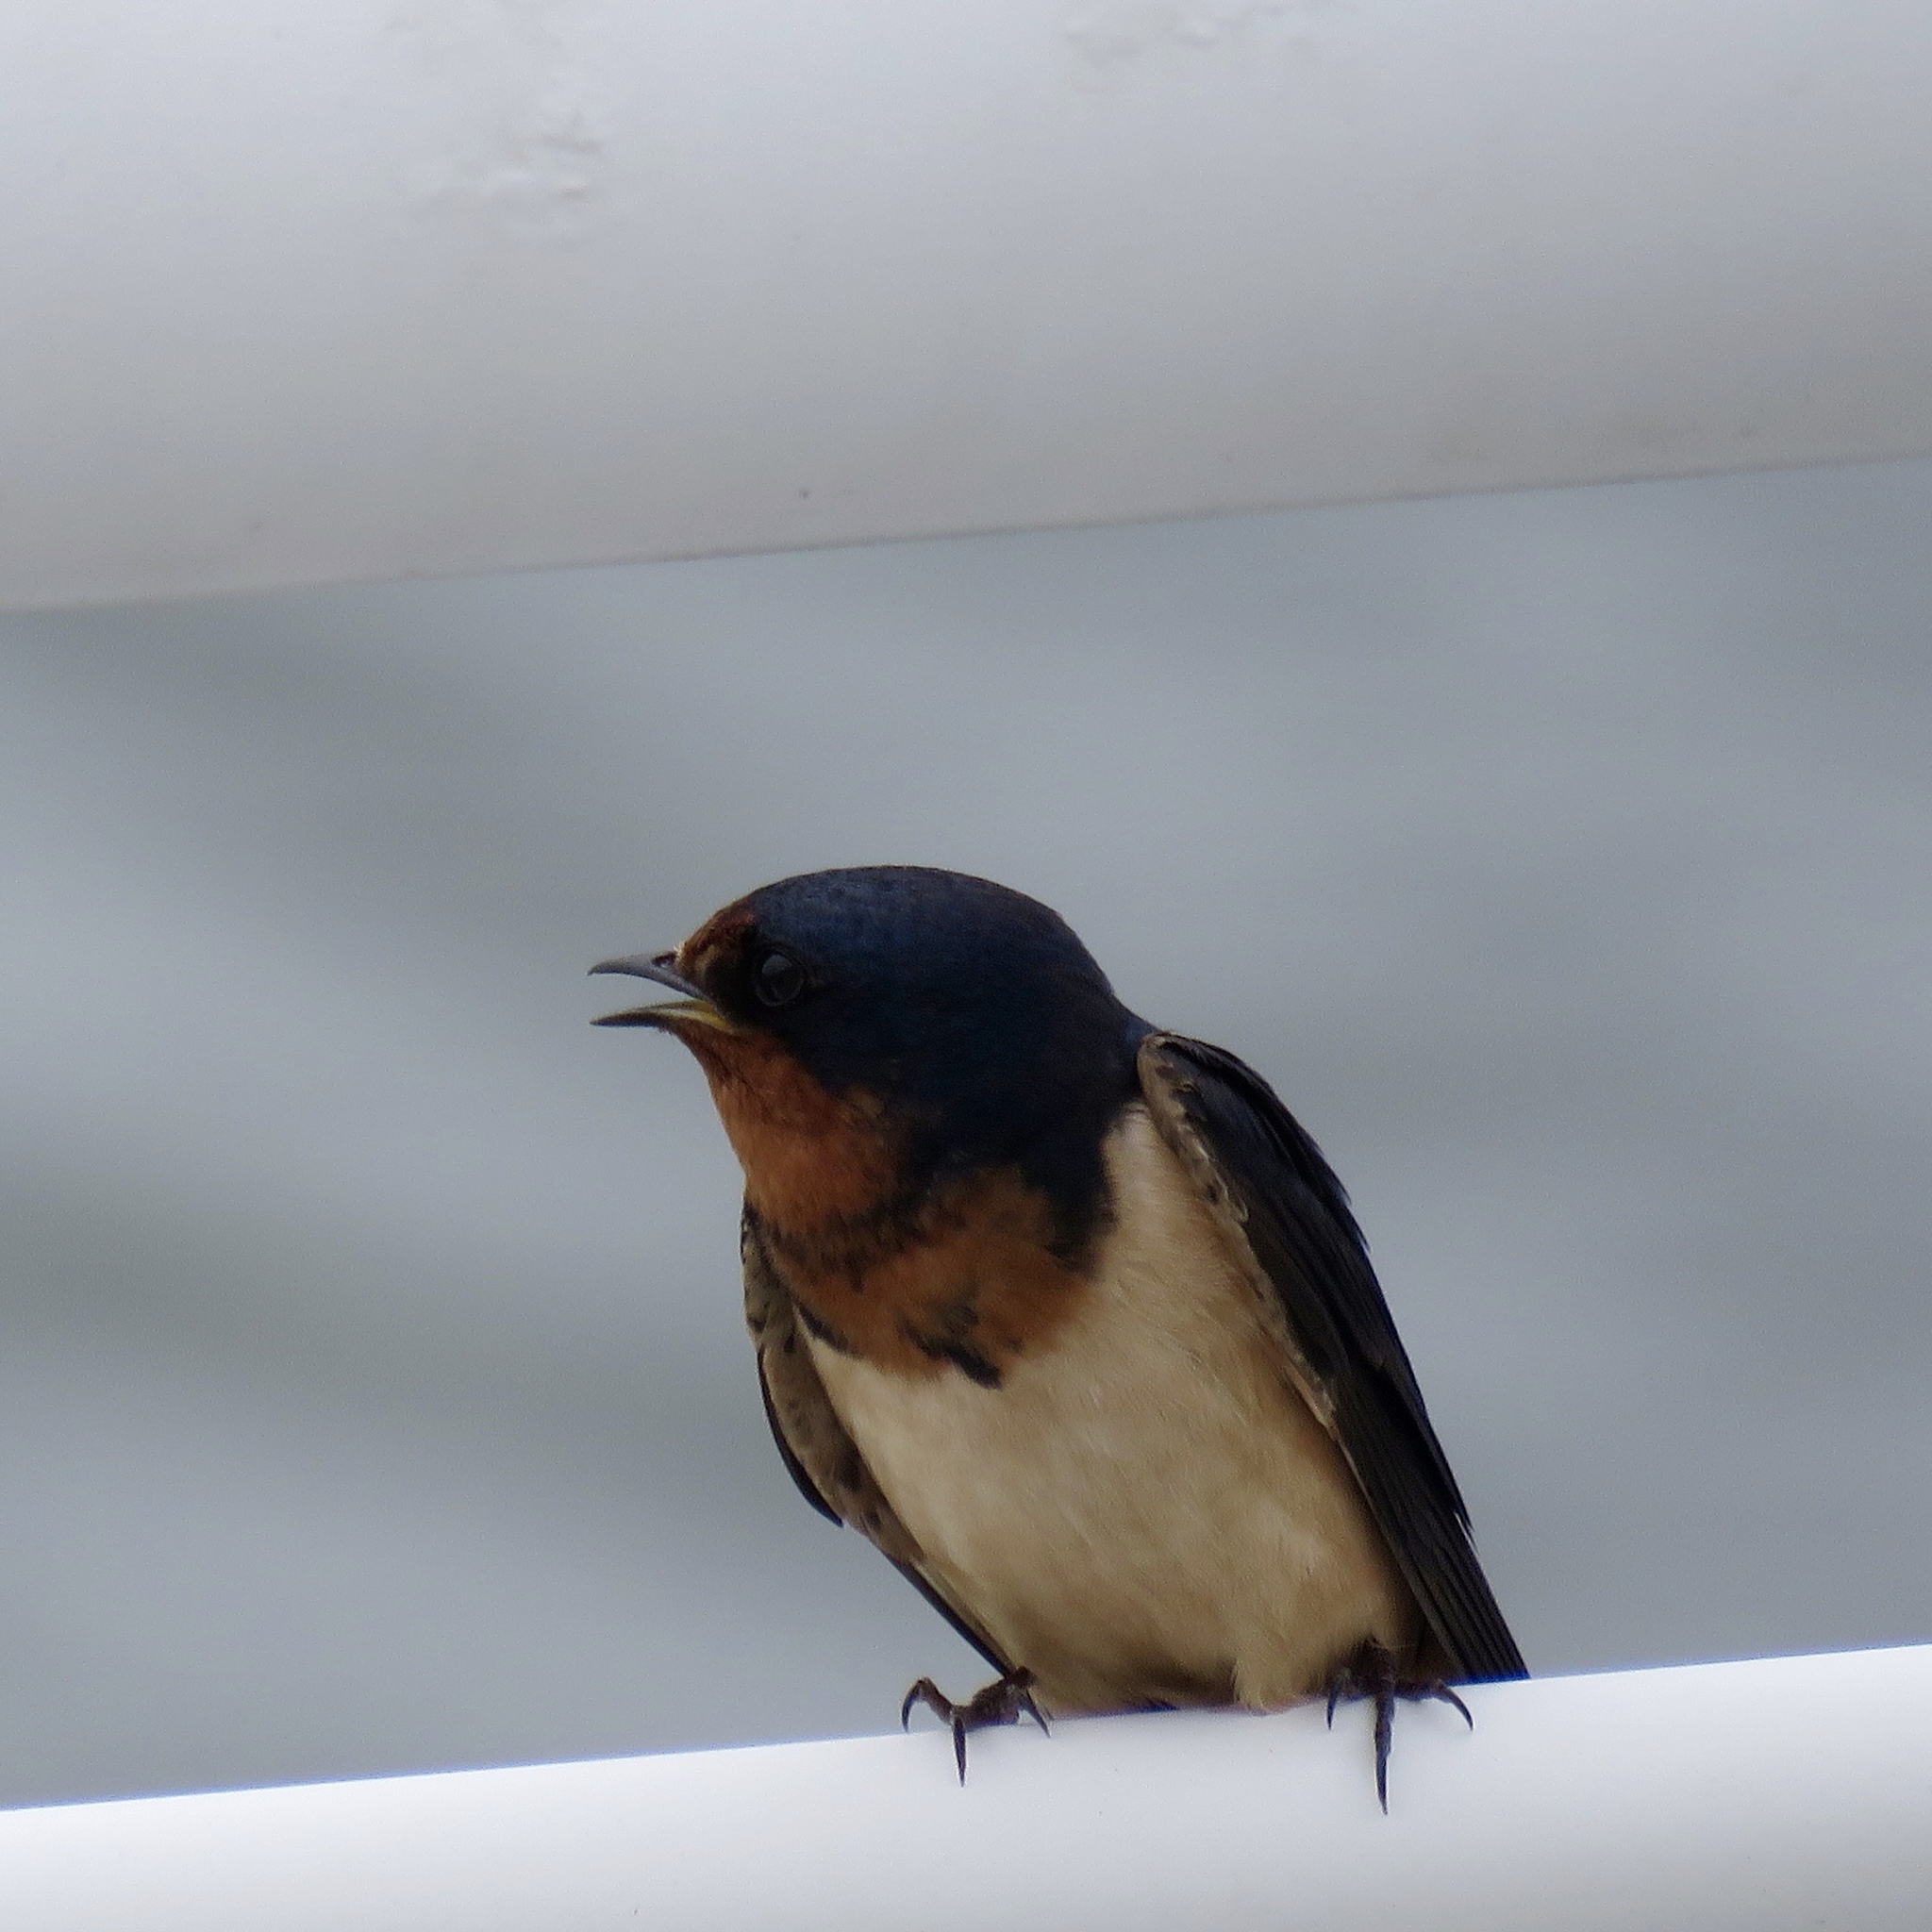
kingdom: Animalia
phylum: Chordata
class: Aves
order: Passeriformes
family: Hirundinidae
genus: Hirundo
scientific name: Hirundo rustica
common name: Barn swallow
